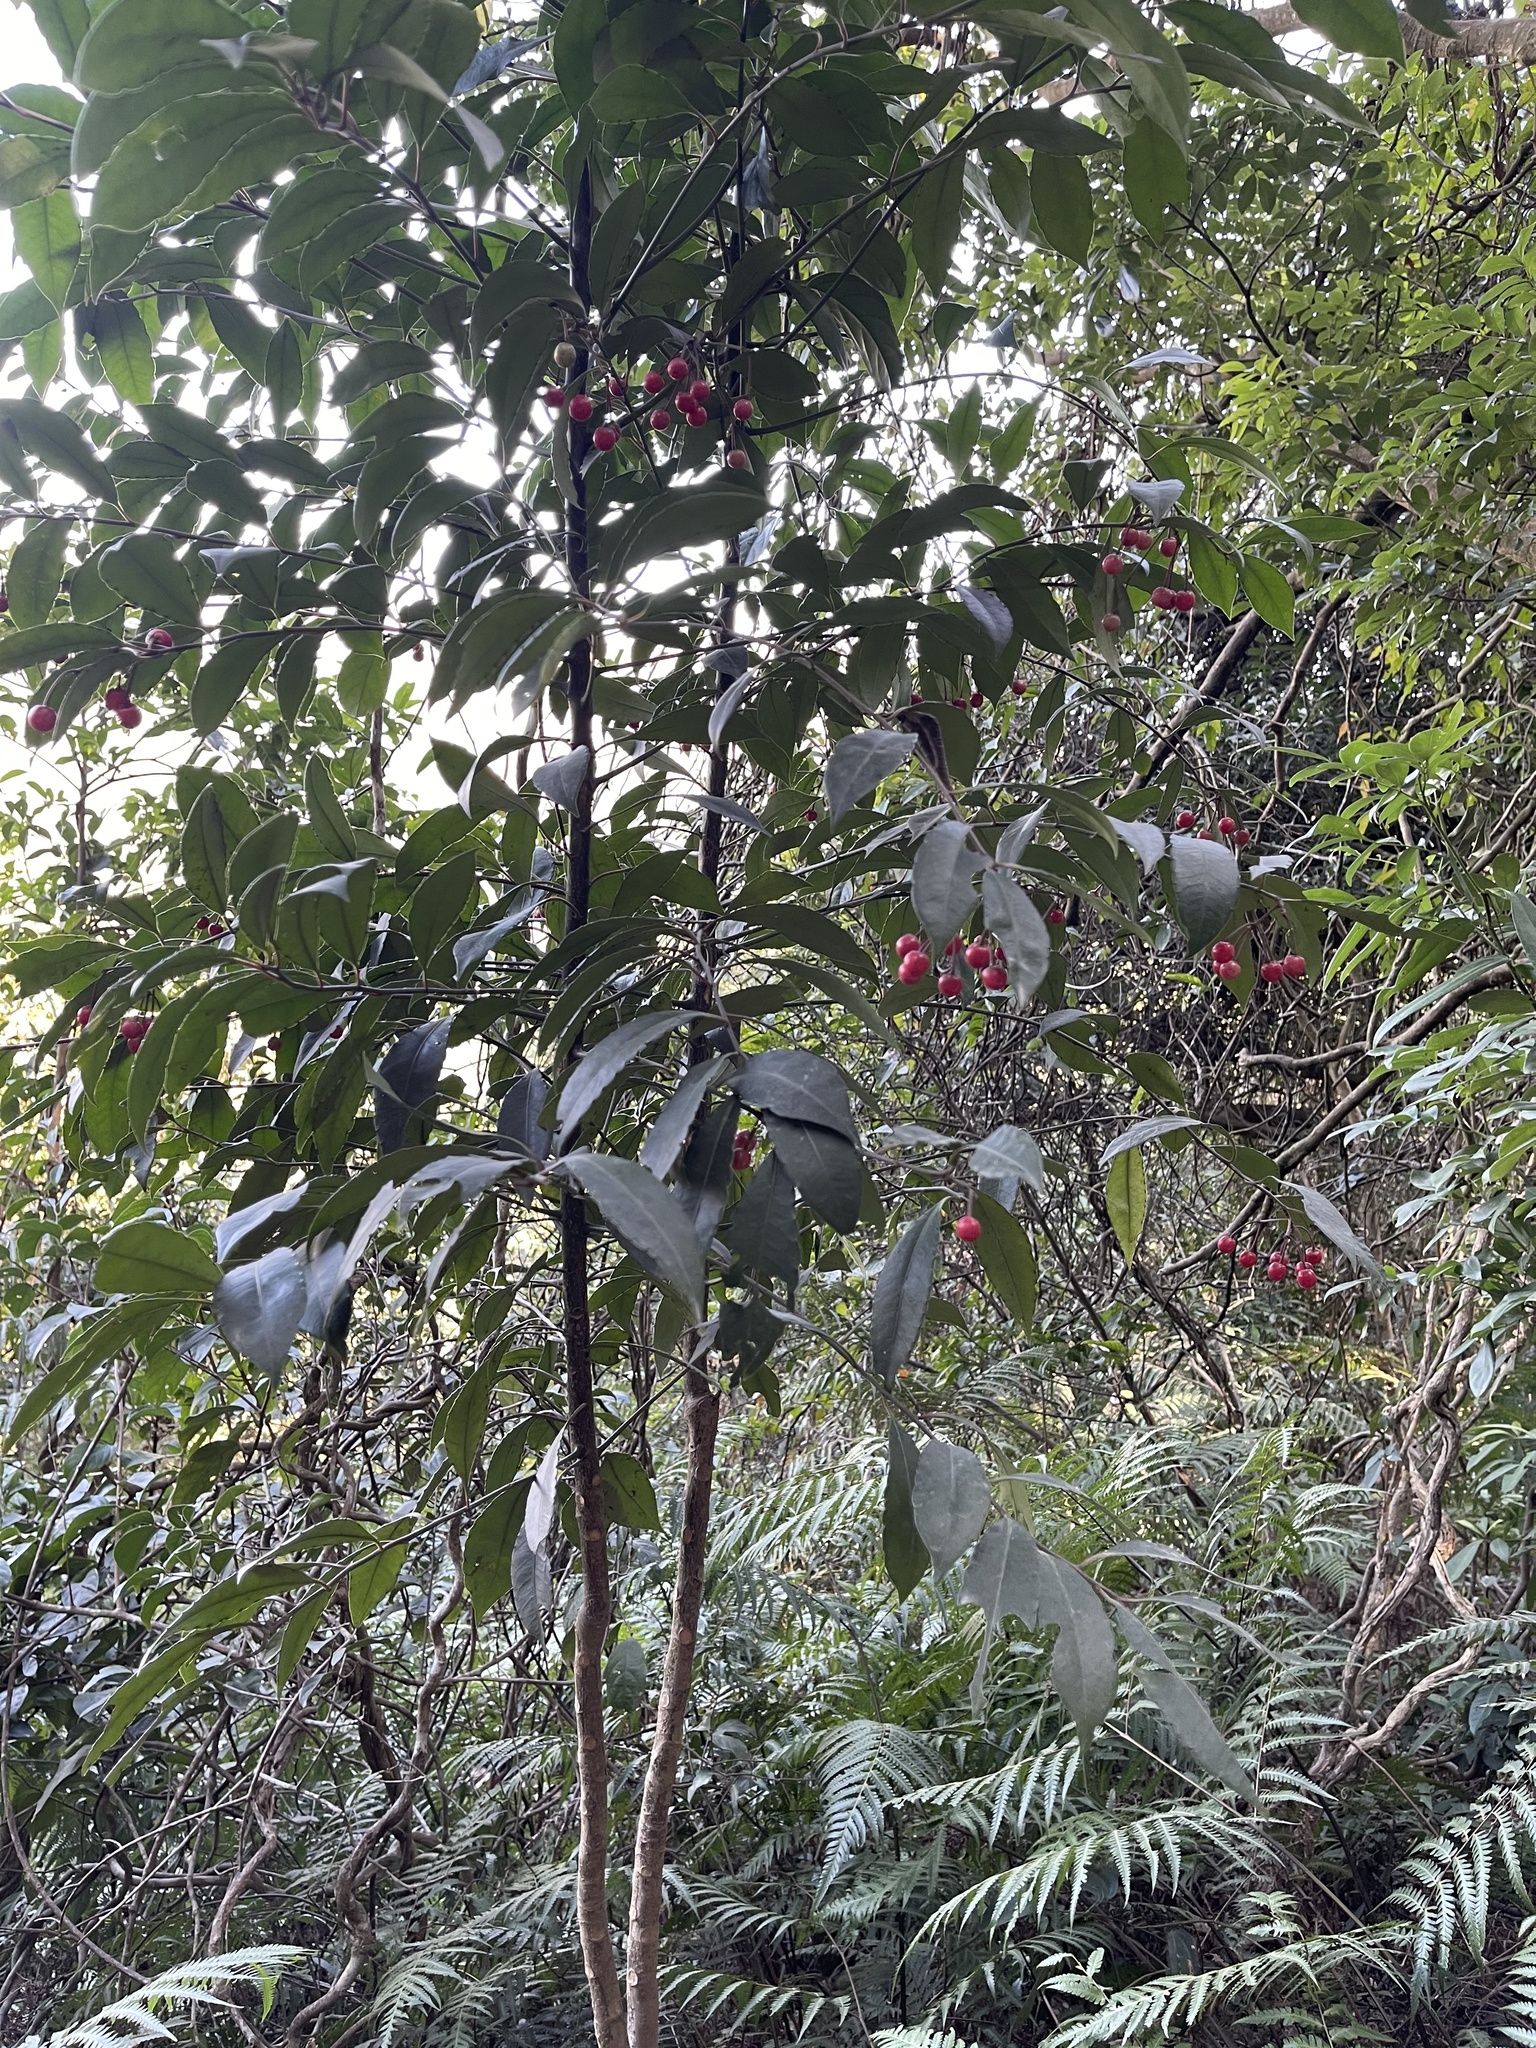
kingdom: Plantae
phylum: Tracheophyta
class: Magnoliopsida
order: Ericales
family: Primulaceae
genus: Ardisia
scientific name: Ardisia crenata
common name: Hen's eyes
